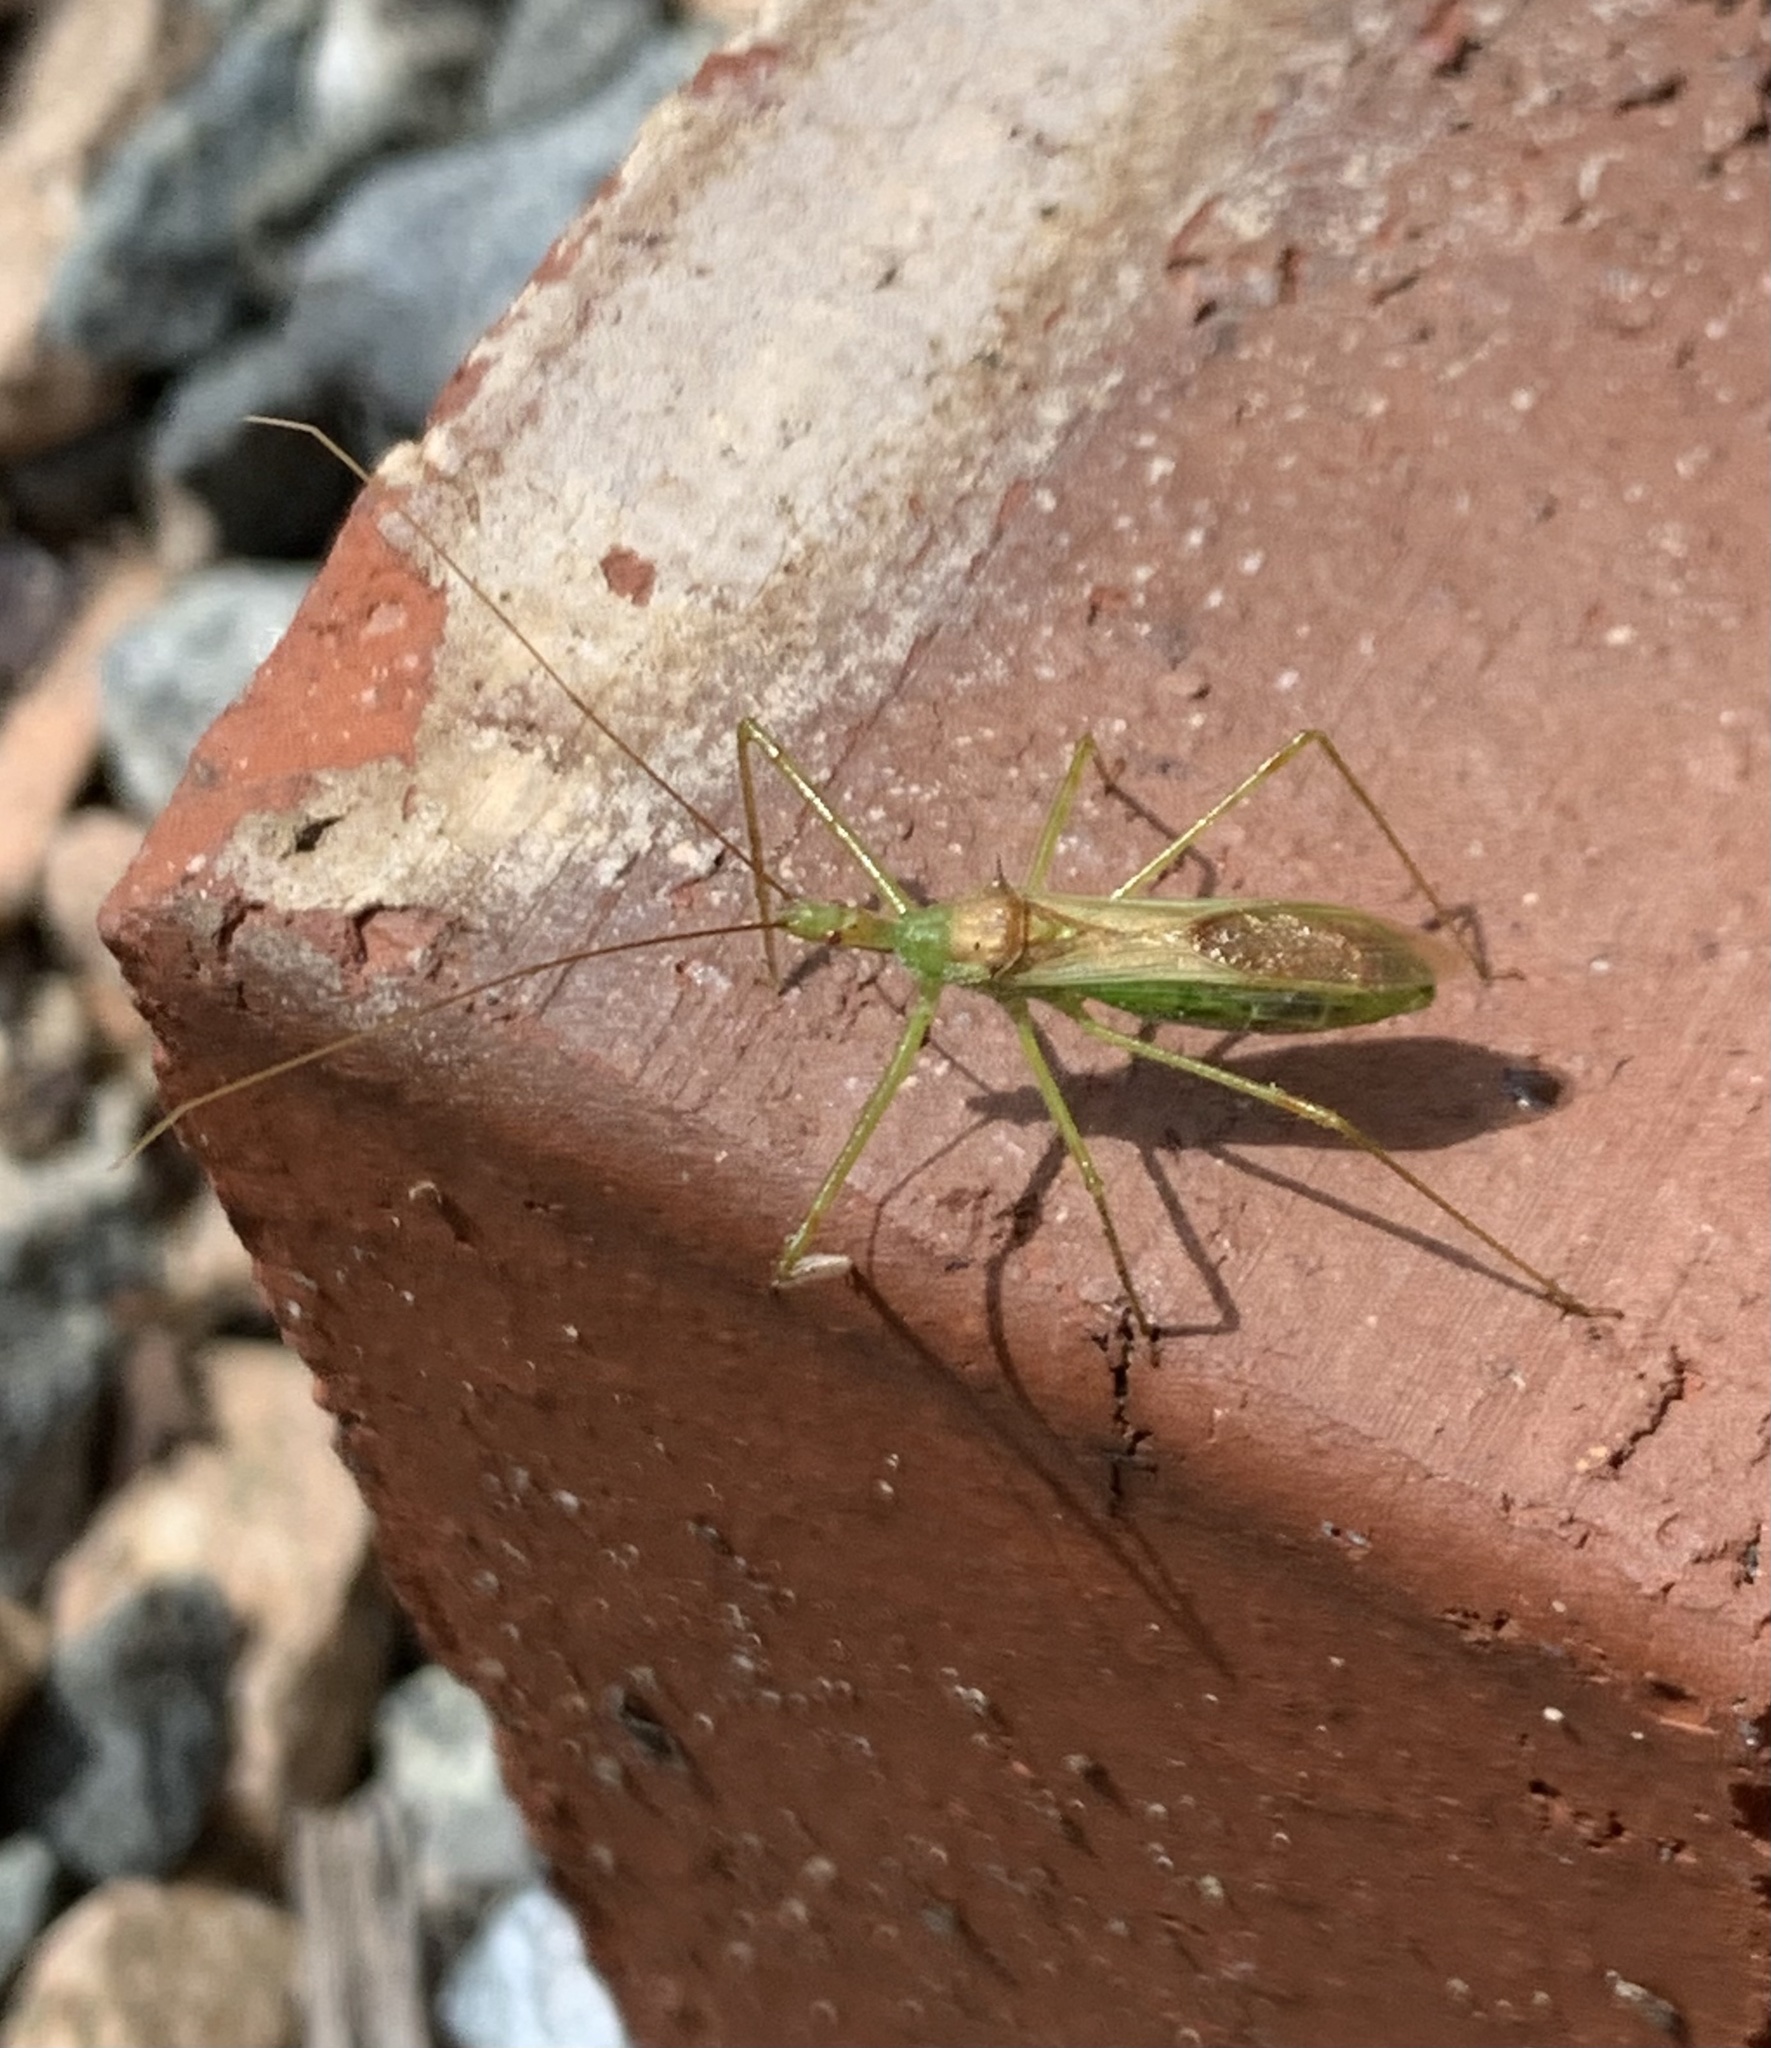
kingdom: Animalia
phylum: Arthropoda
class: Insecta
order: Hemiptera
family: Reduviidae
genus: Zelus
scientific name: Zelus luridus
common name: Pale green assassin bug
